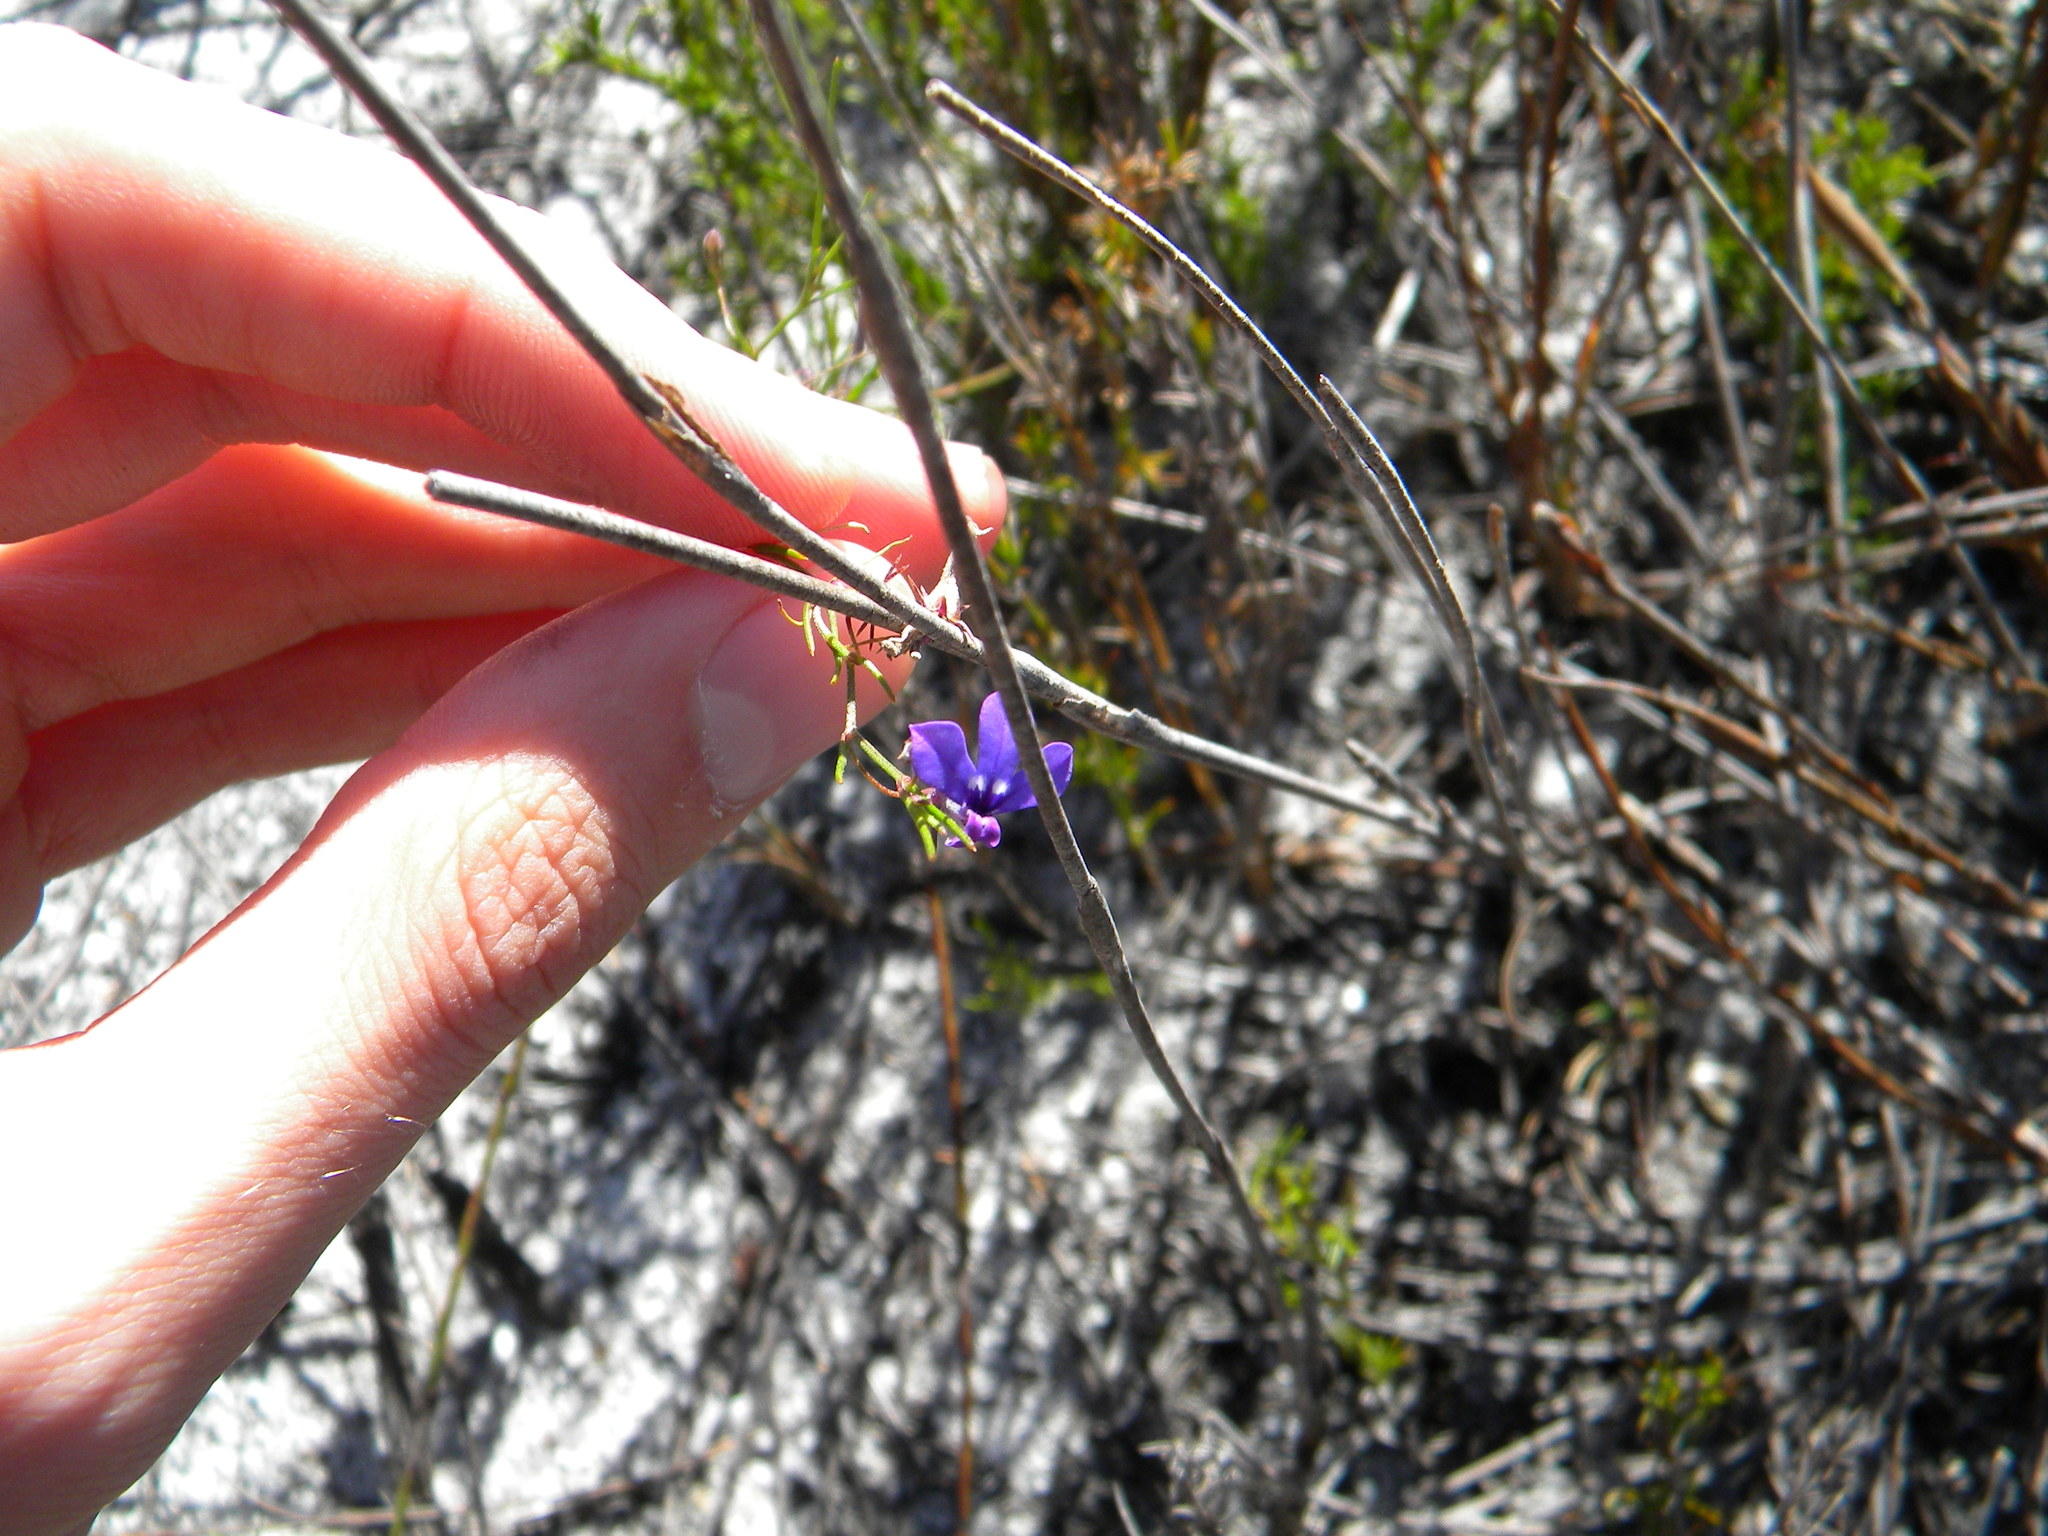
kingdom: Plantae
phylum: Tracheophyta
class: Magnoliopsida
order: Asterales
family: Campanulaceae
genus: Lobelia
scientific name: Lobelia setacea
